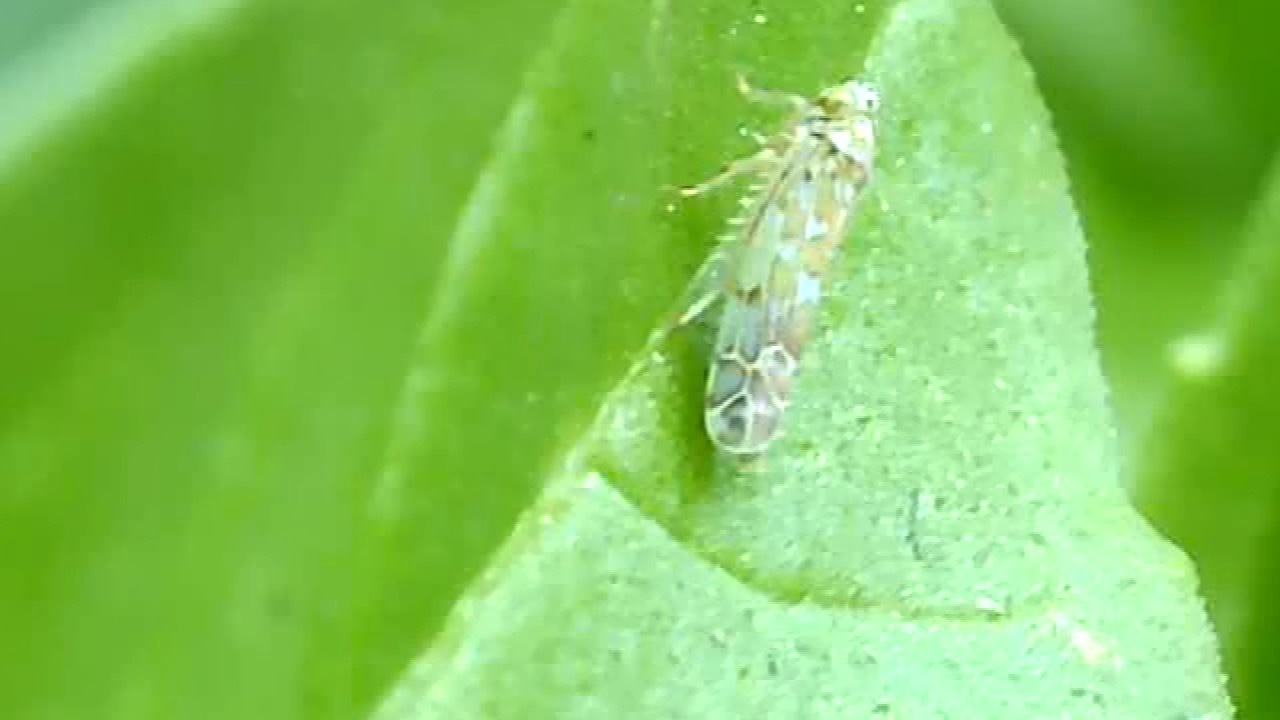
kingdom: Animalia
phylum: Arthropoda
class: Insecta
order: Hemiptera
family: Cicadellidae
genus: Eupteryx
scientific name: Eupteryx decemnotata
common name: Ligurian leafhopper
